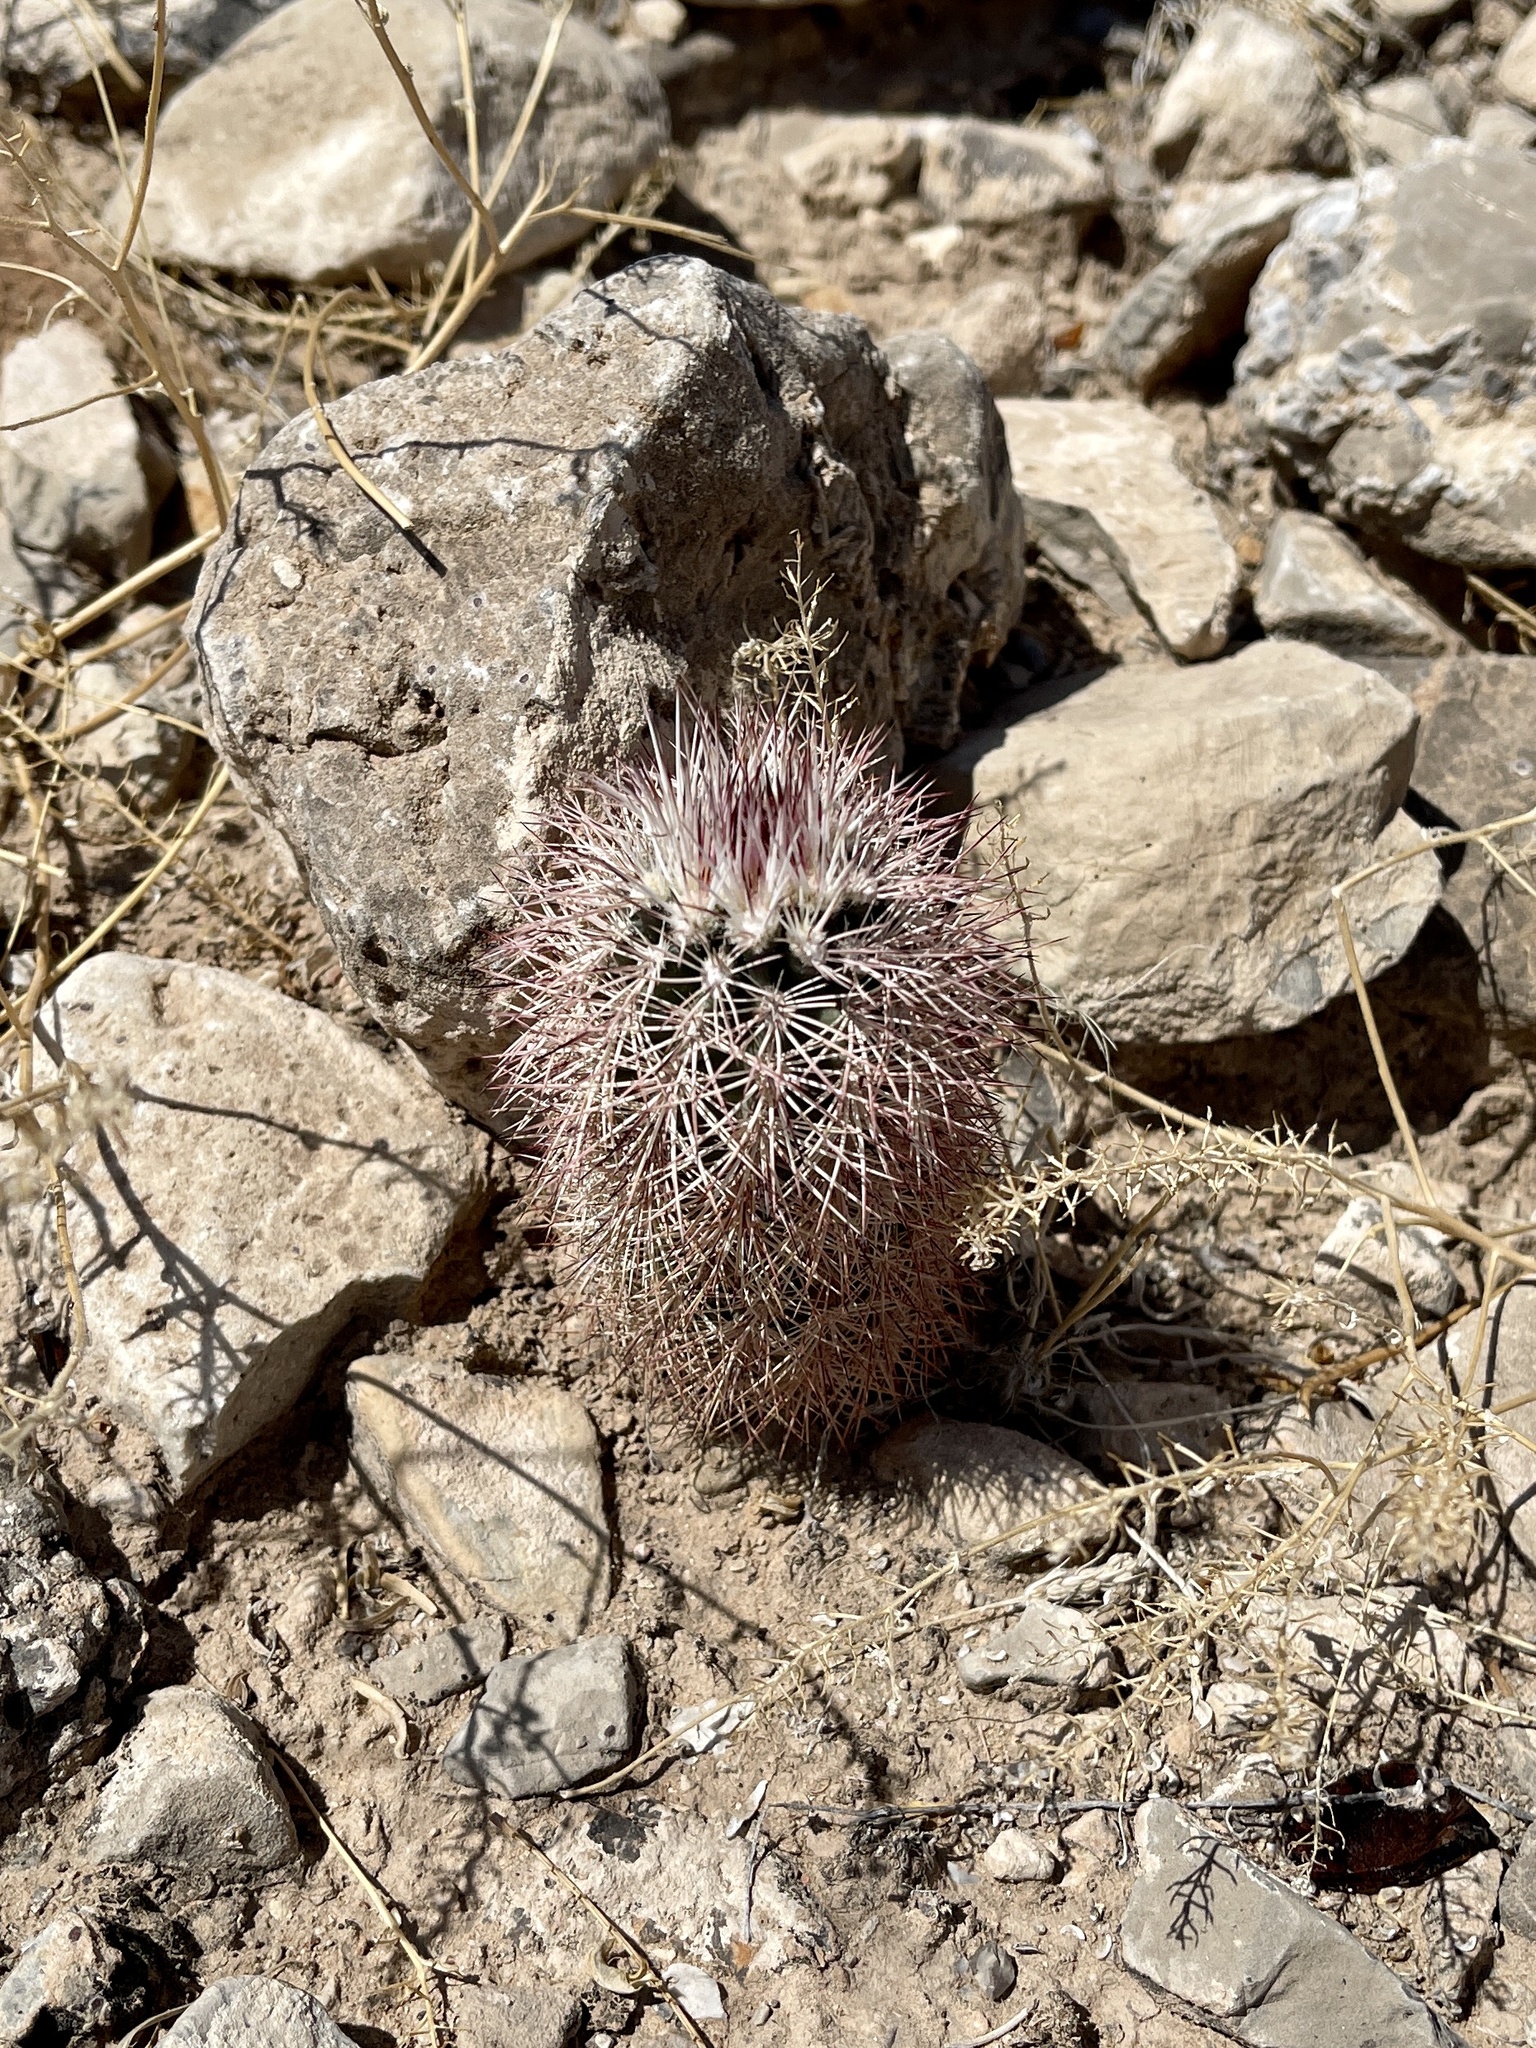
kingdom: Plantae
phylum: Tracheophyta
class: Magnoliopsida
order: Caryophyllales
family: Cactaceae
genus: Echinocereus
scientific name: Echinocereus dasyacanthus
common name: Spiny hedgehog cactus
